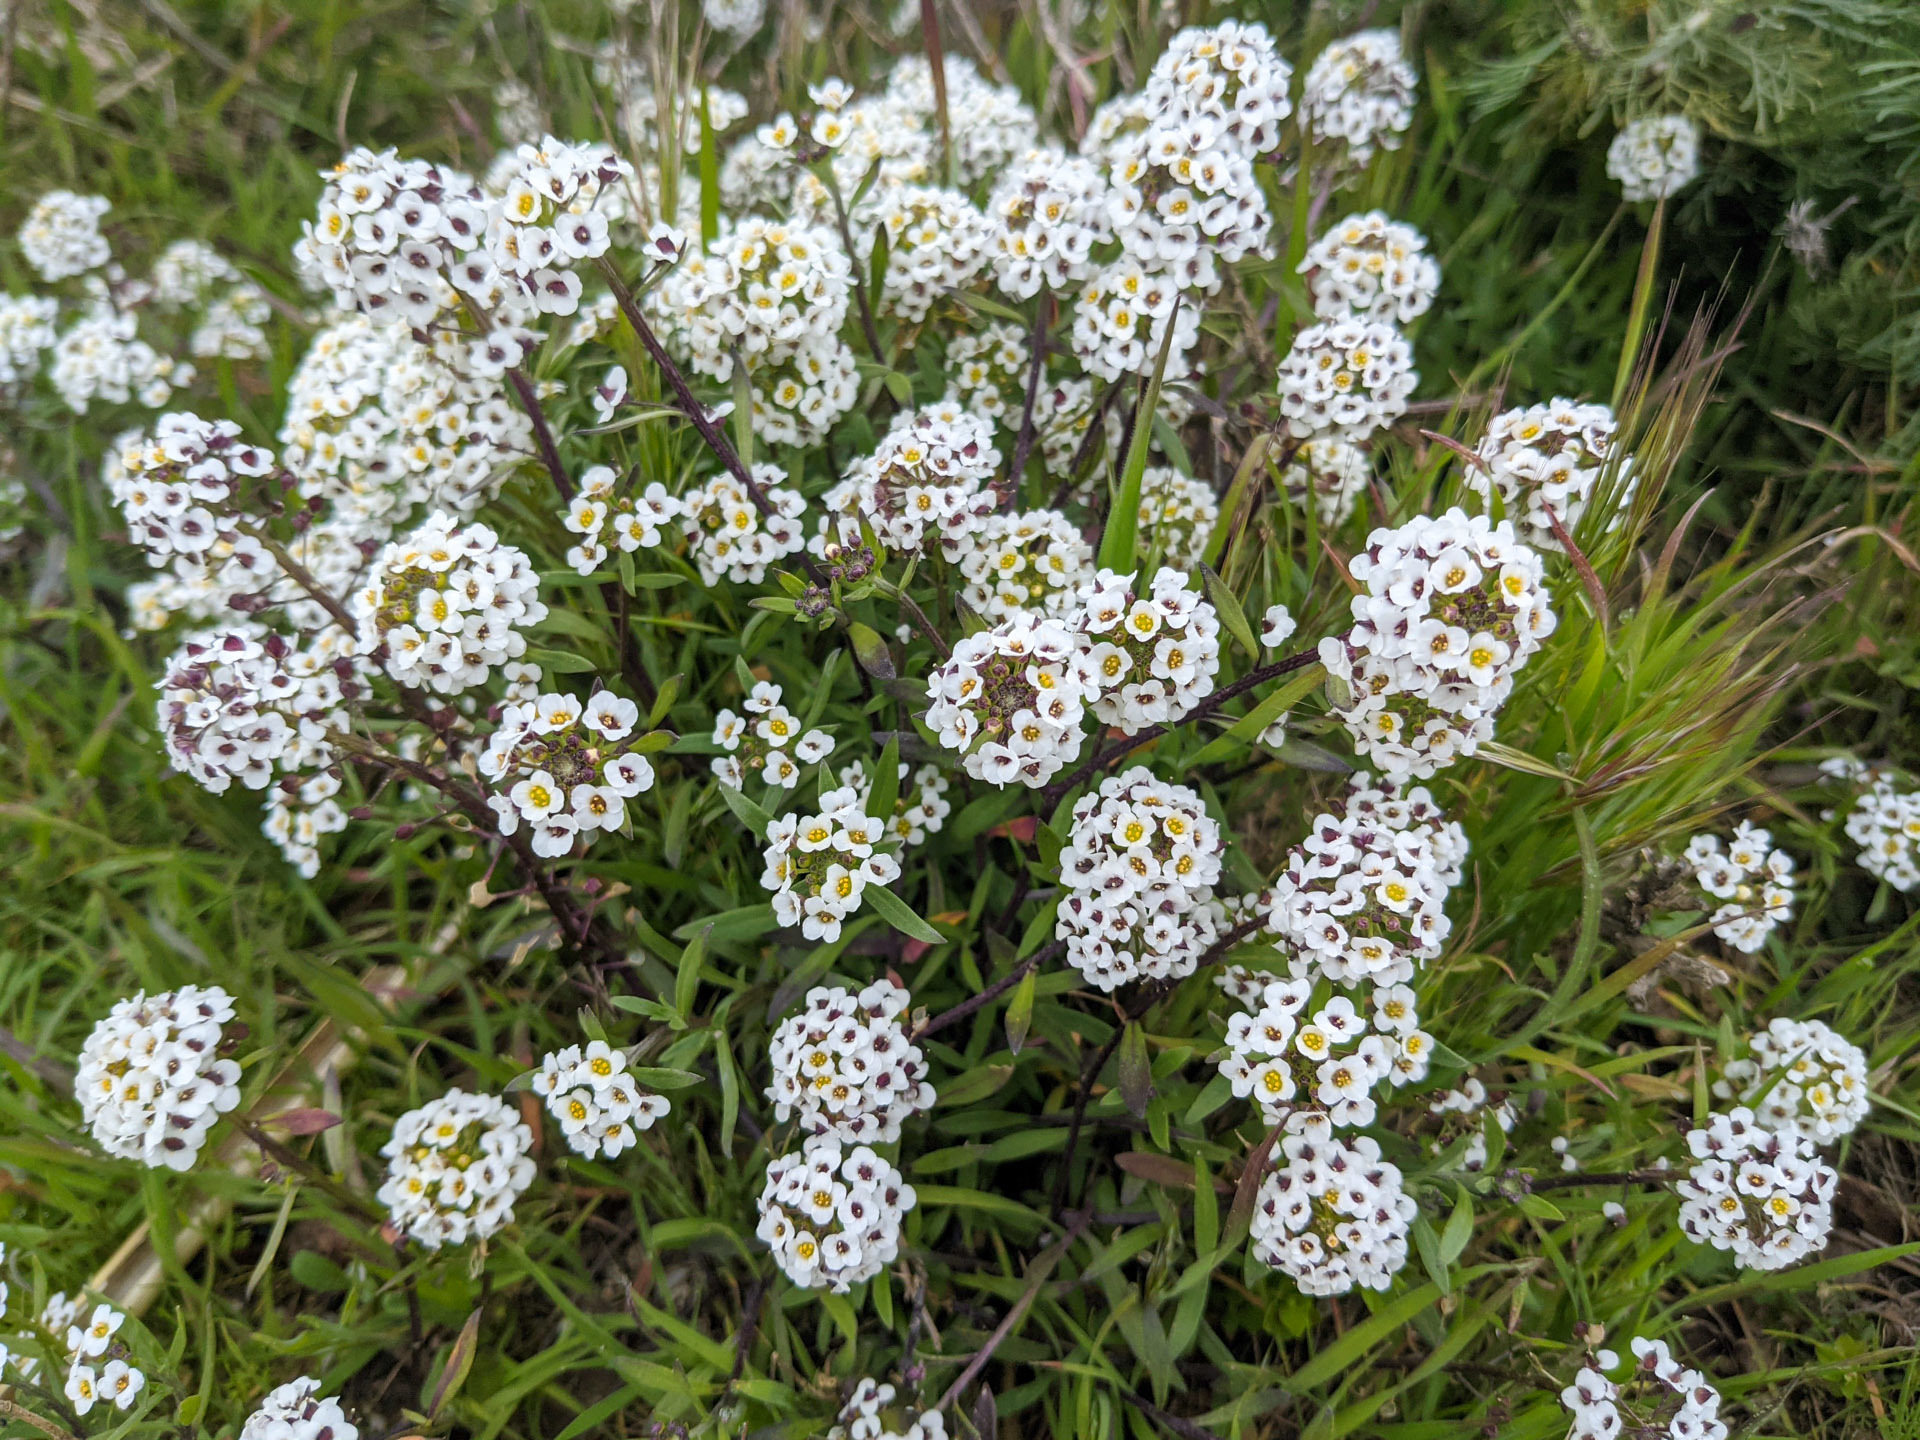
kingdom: Plantae
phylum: Tracheophyta
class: Magnoliopsida
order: Brassicales
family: Brassicaceae
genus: Lobularia
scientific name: Lobularia maritima
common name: Sweet alison
